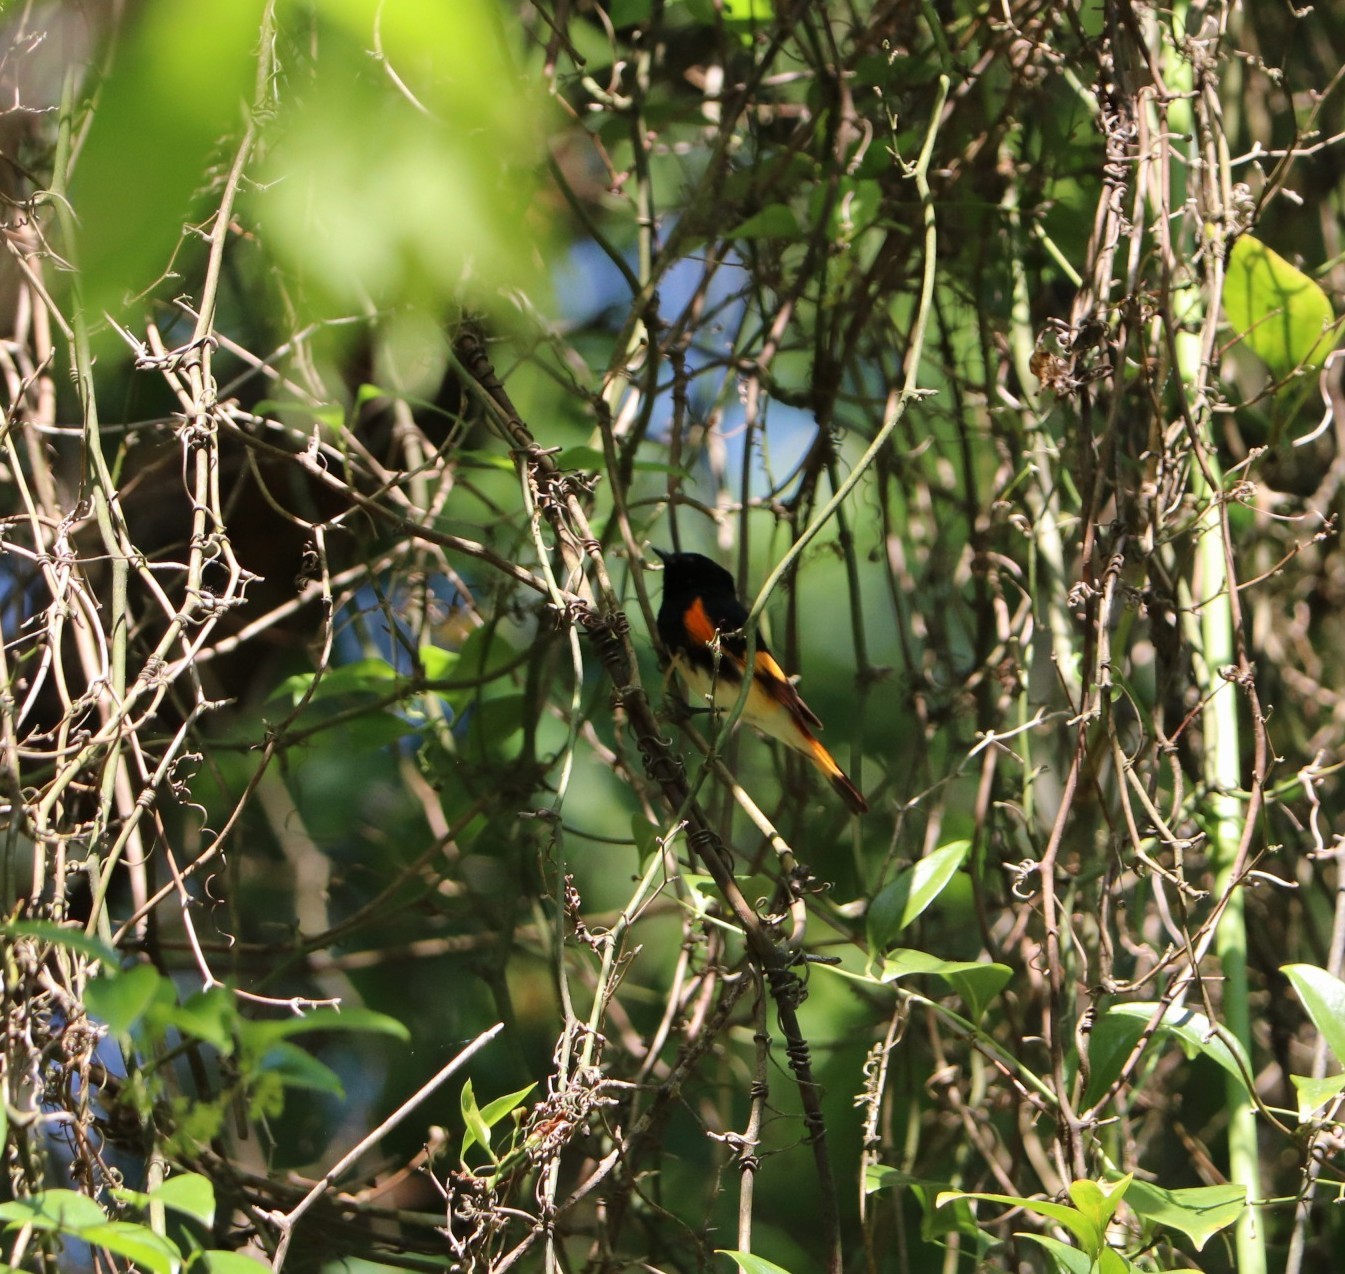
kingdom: Animalia
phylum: Chordata
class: Aves
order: Passeriformes
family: Parulidae
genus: Setophaga
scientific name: Setophaga ruticilla
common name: American redstart
